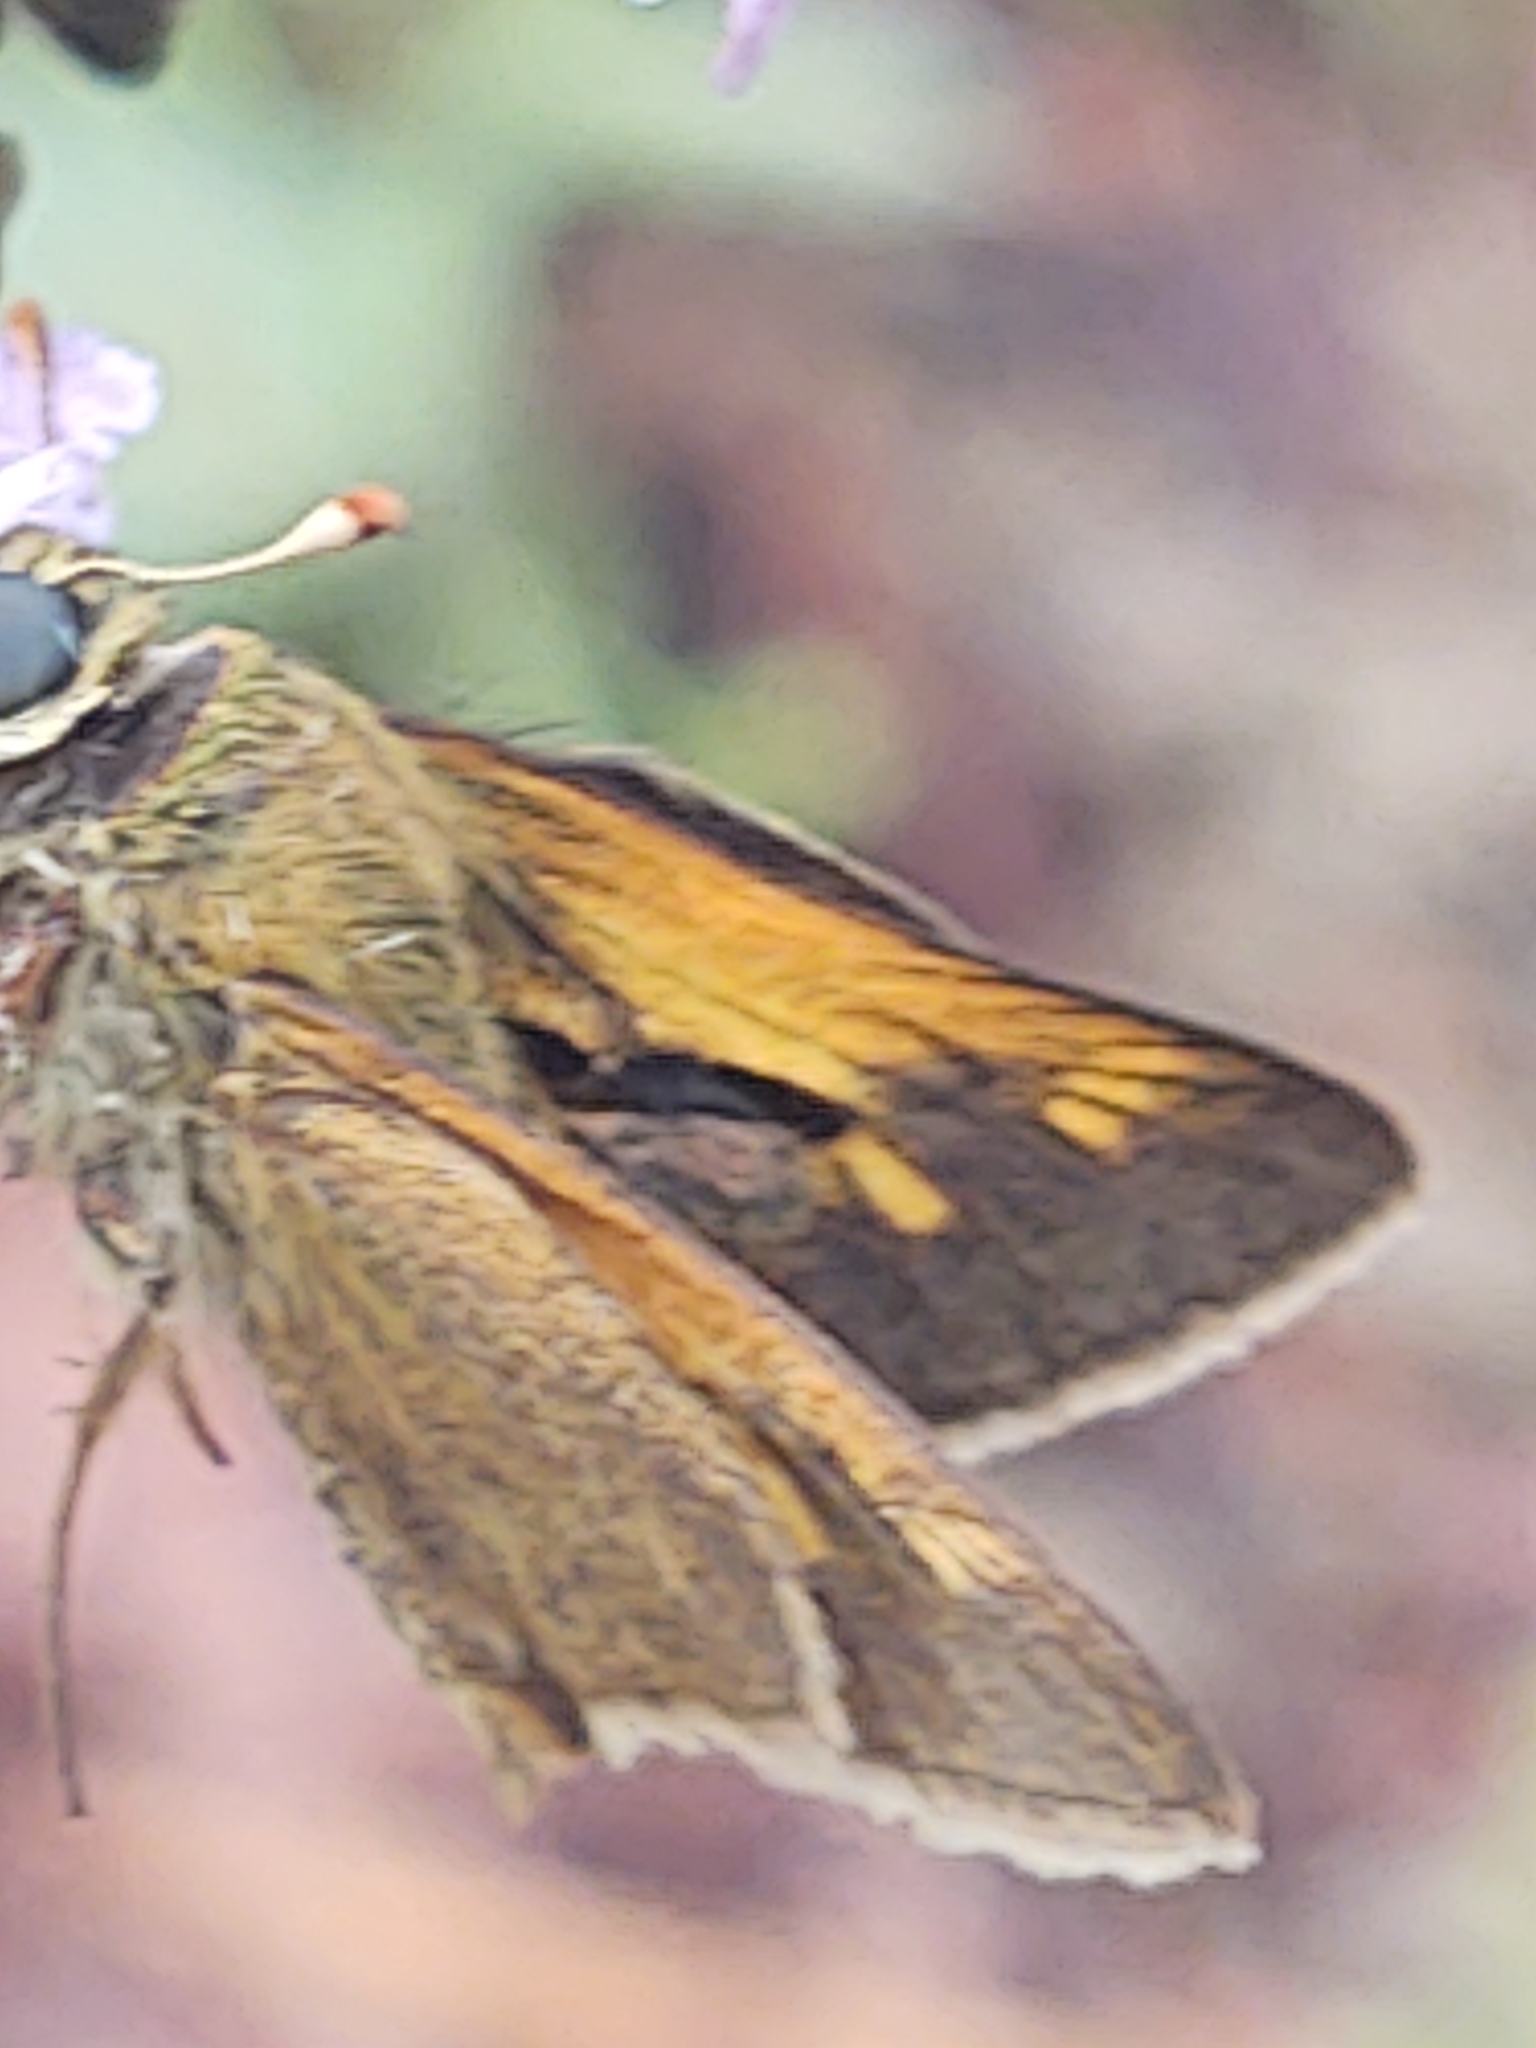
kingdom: Animalia
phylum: Arthropoda
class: Insecta
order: Lepidoptera
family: Hesperiidae
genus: Polites
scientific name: Polites themistocles
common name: Tawny-edged skipper
